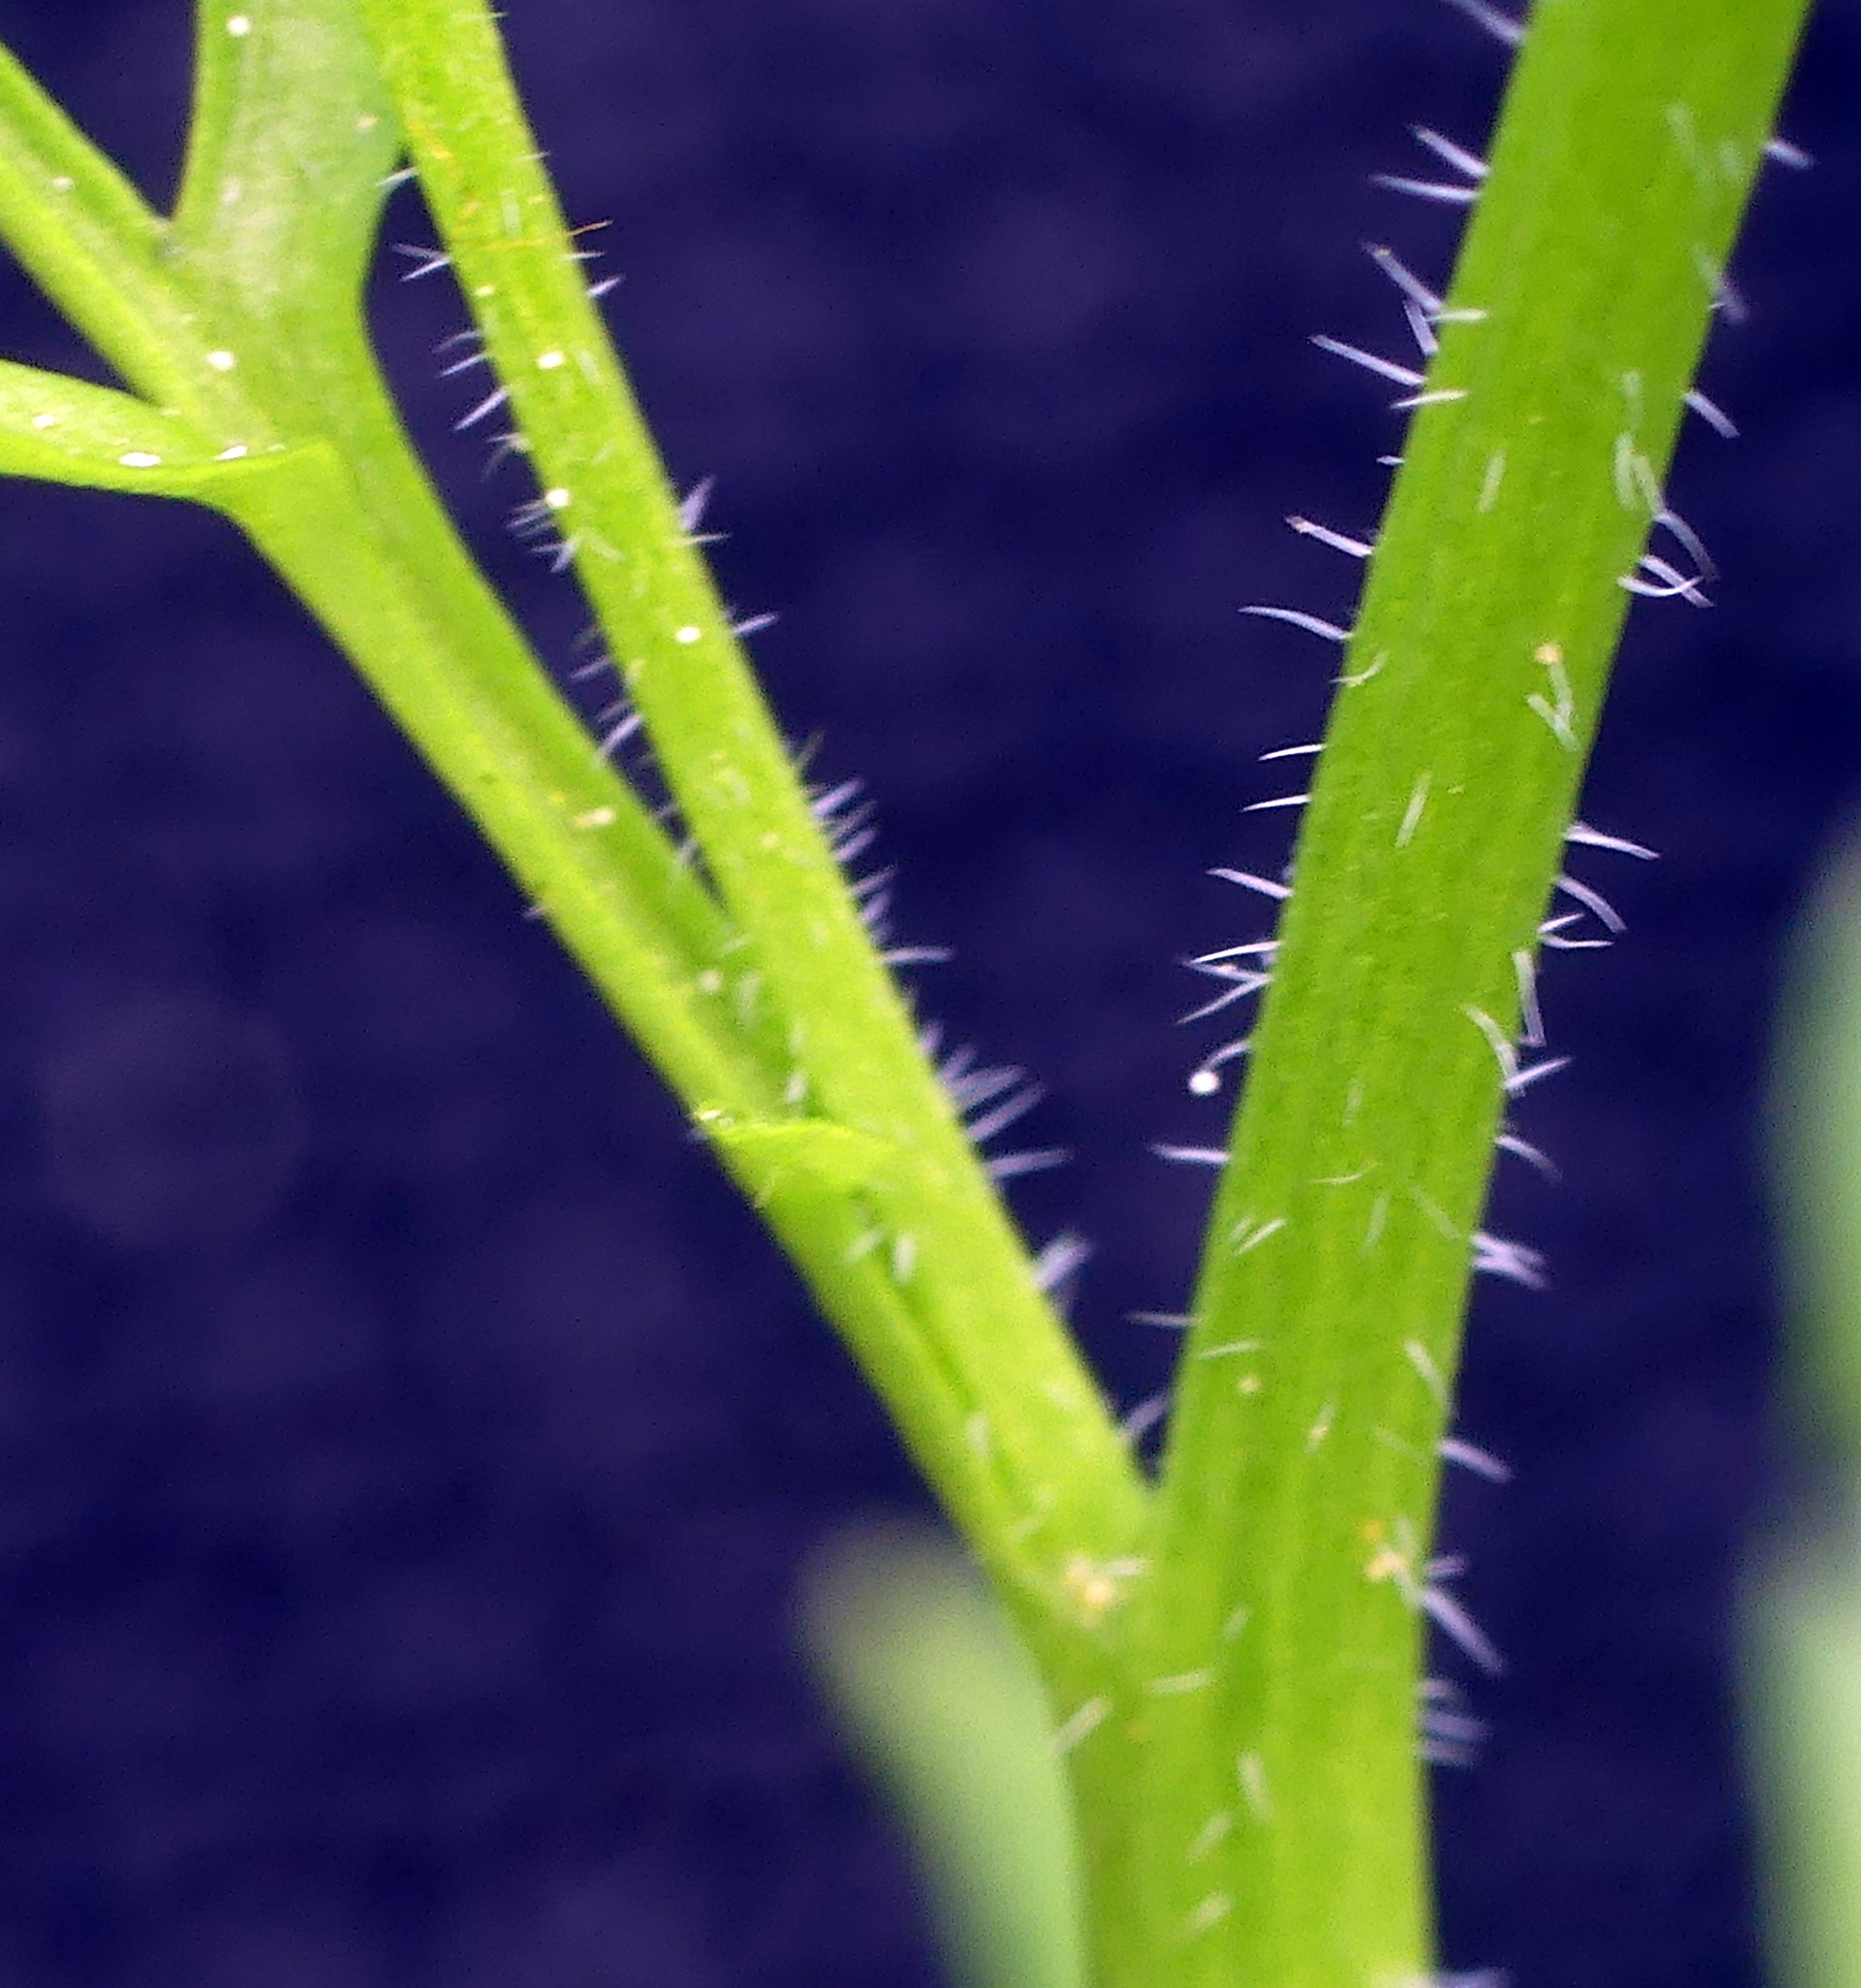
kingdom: Plantae
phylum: Tracheophyta
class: Magnoliopsida
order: Brassicales
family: Brassicaceae
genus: Cardamine
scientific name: Cardamine flexuosa
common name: Woodland bittercress
